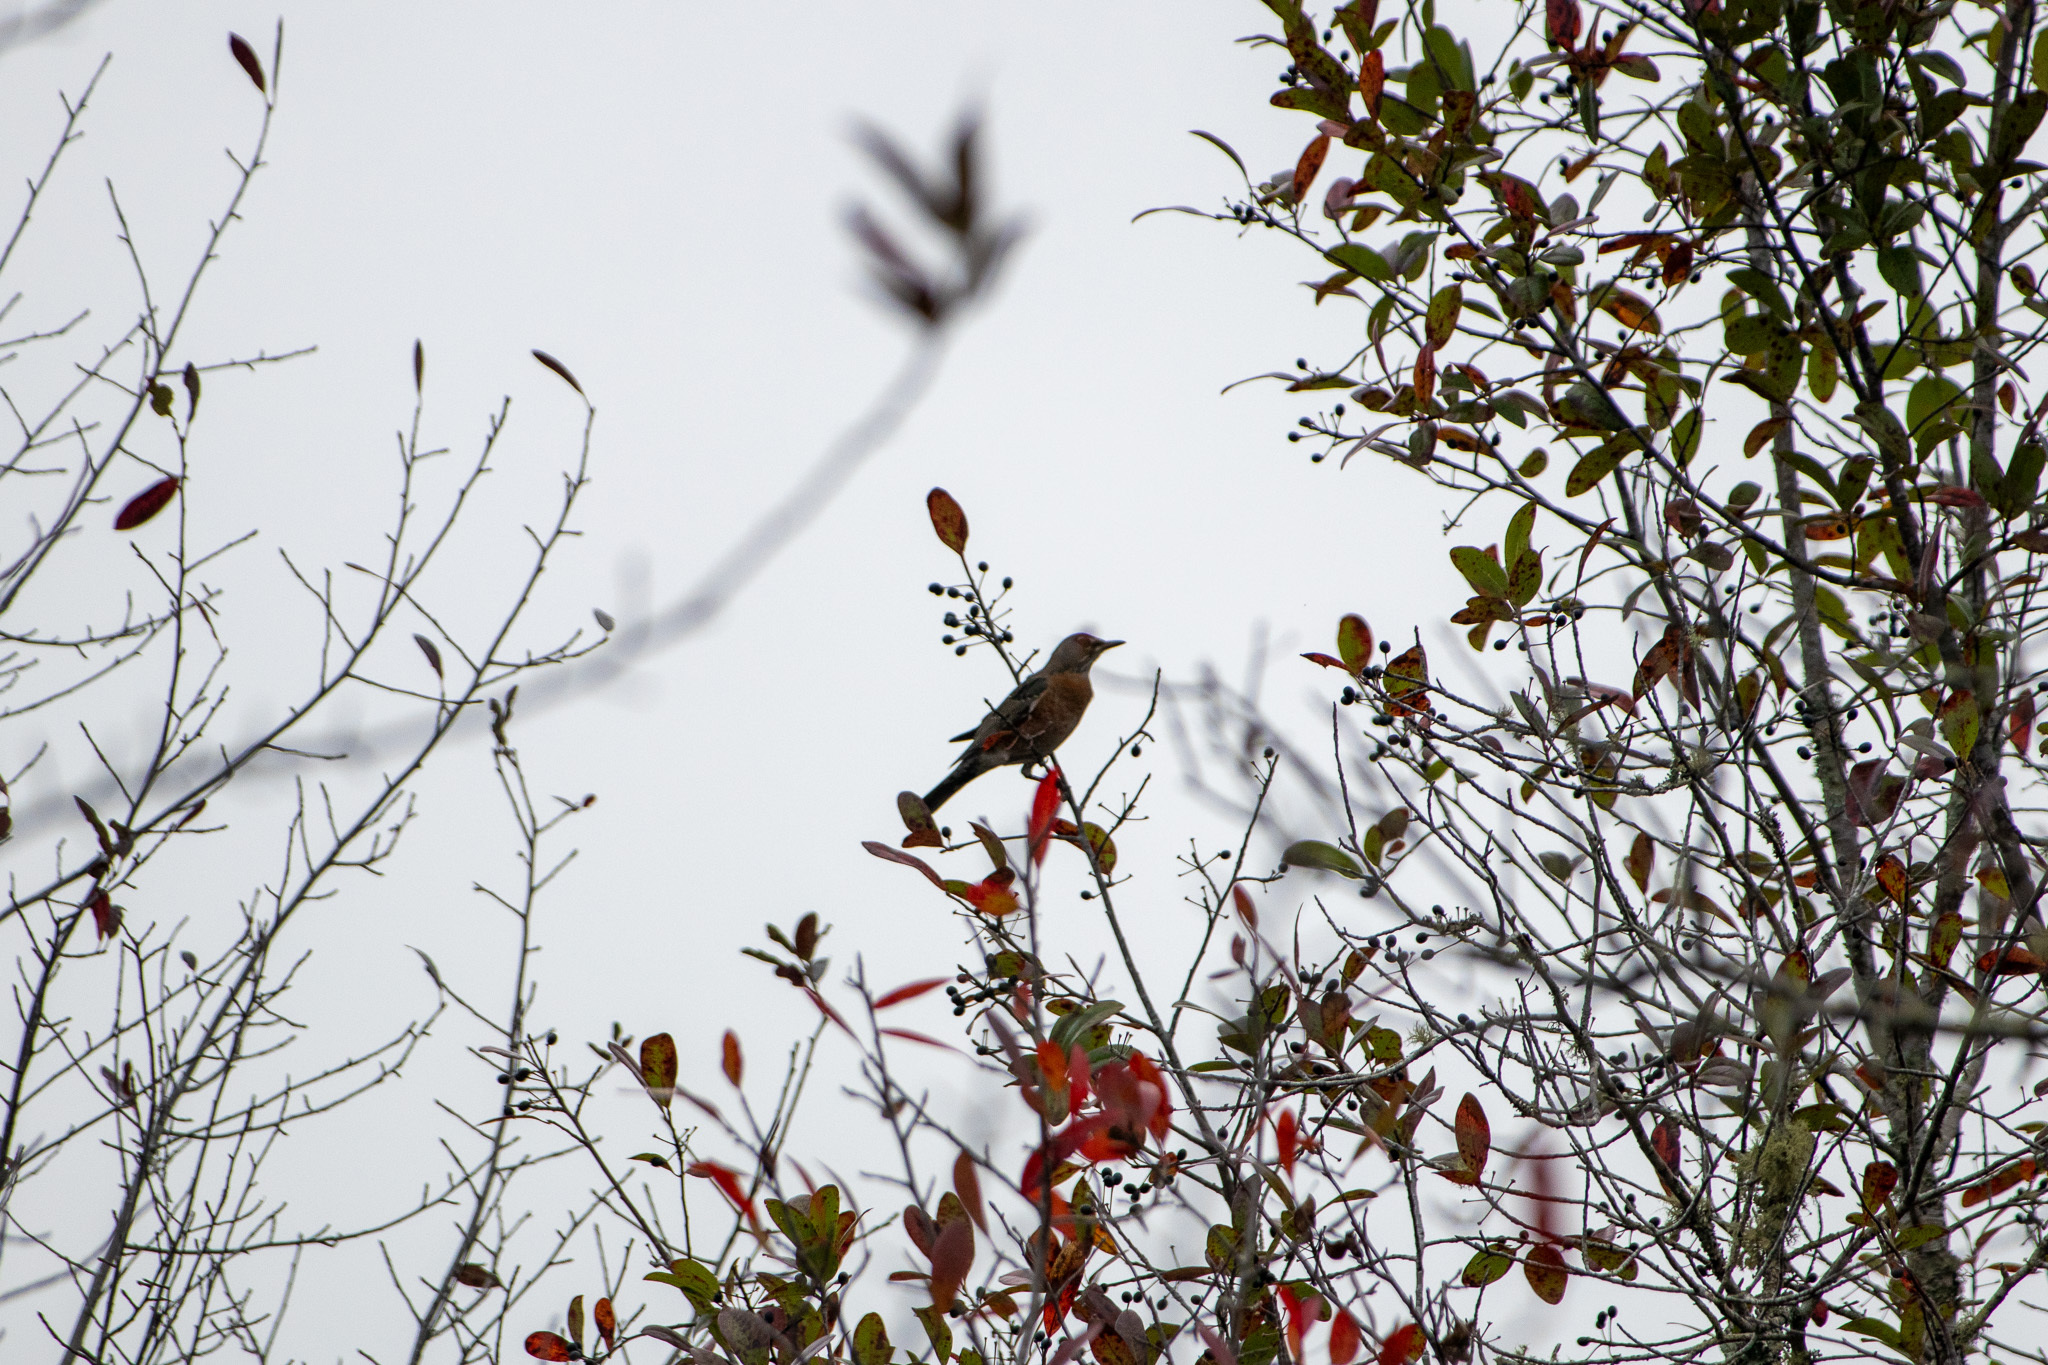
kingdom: Animalia
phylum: Chordata
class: Aves
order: Passeriformes
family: Turdidae
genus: Turdus
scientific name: Turdus migratorius
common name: American robin
